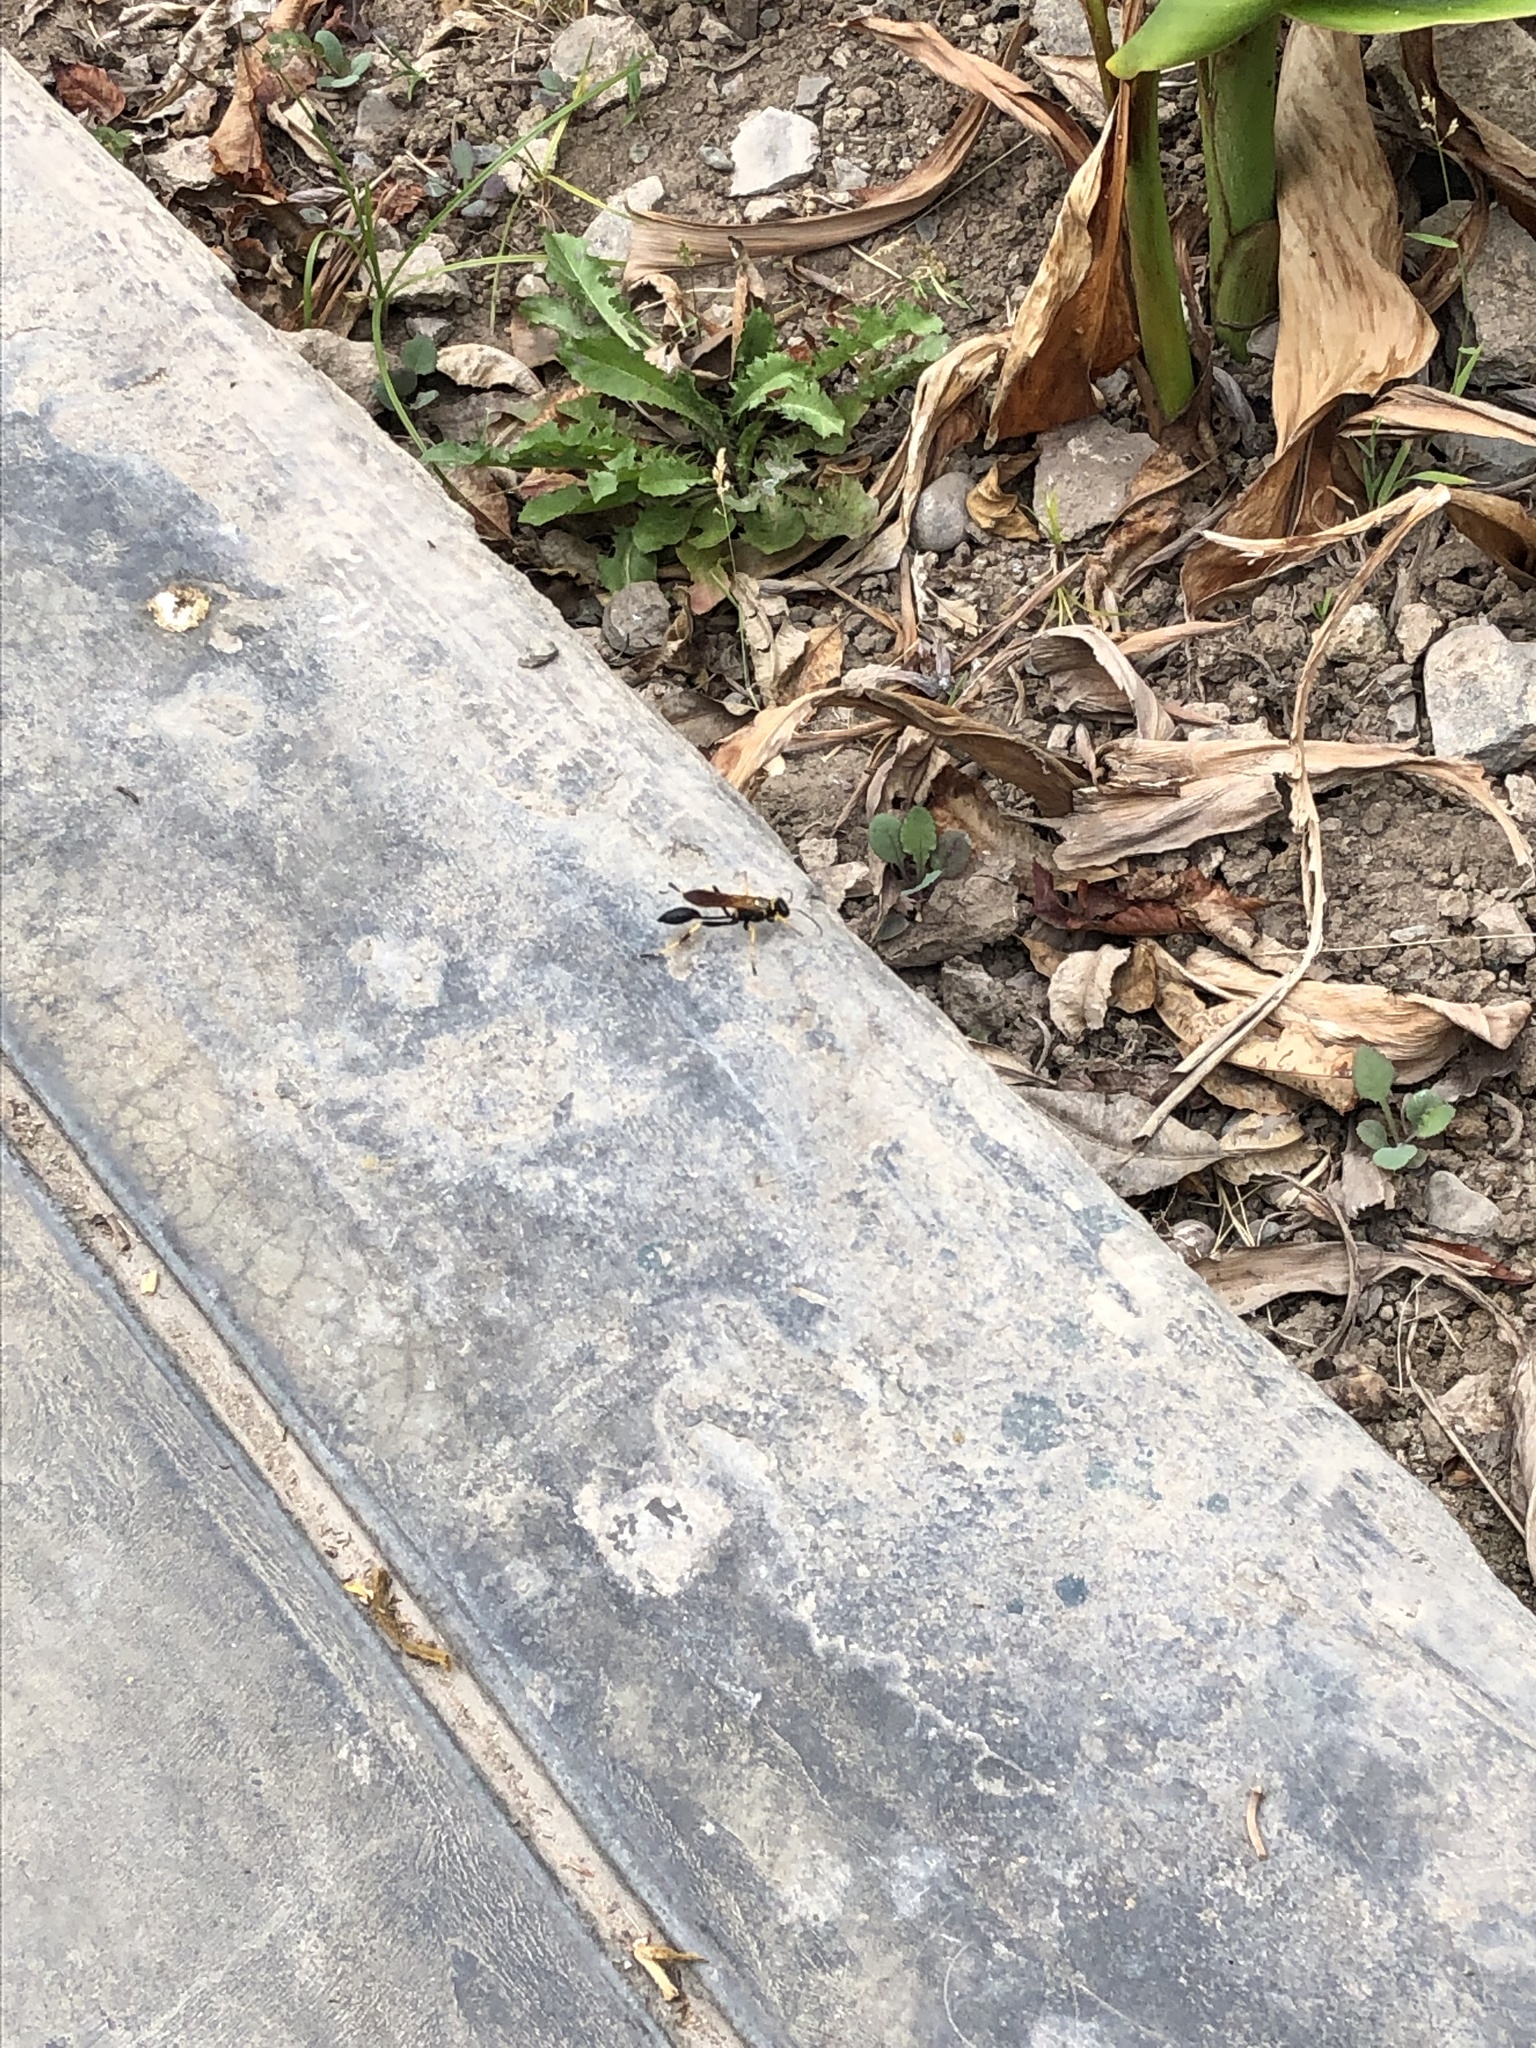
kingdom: Animalia
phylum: Arthropoda
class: Insecta
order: Hymenoptera
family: Sphecidae
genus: Sceliphron
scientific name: Sceliphron caementarium
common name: Mud dauber
